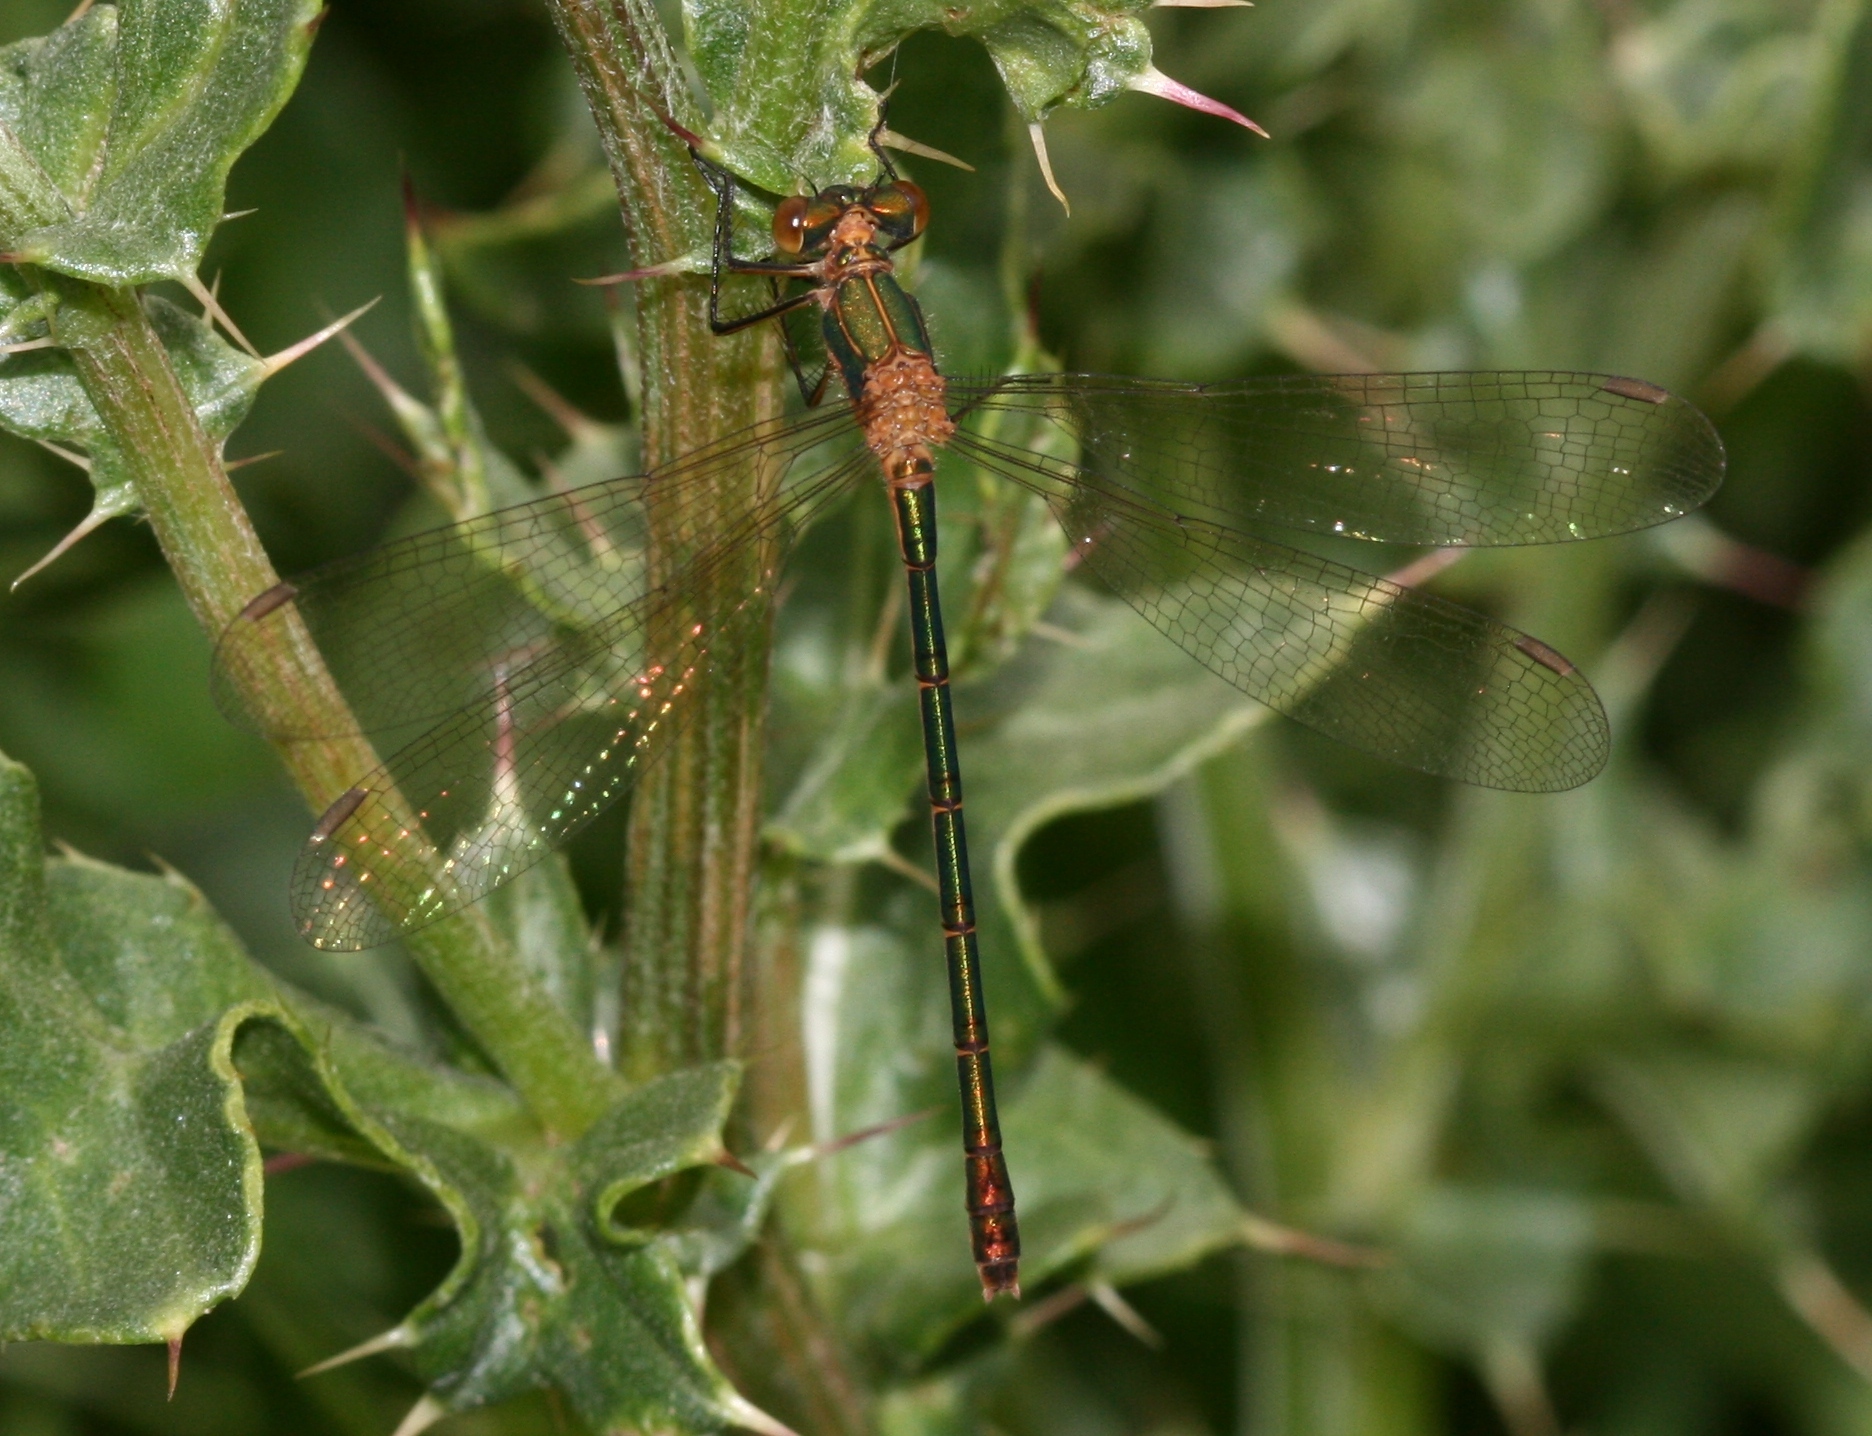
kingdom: Animalia
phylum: Arthropoda
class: Insecta
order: Odonata
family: Lestidae
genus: Lestes
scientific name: Lestes sponsa
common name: Common spreadwing
